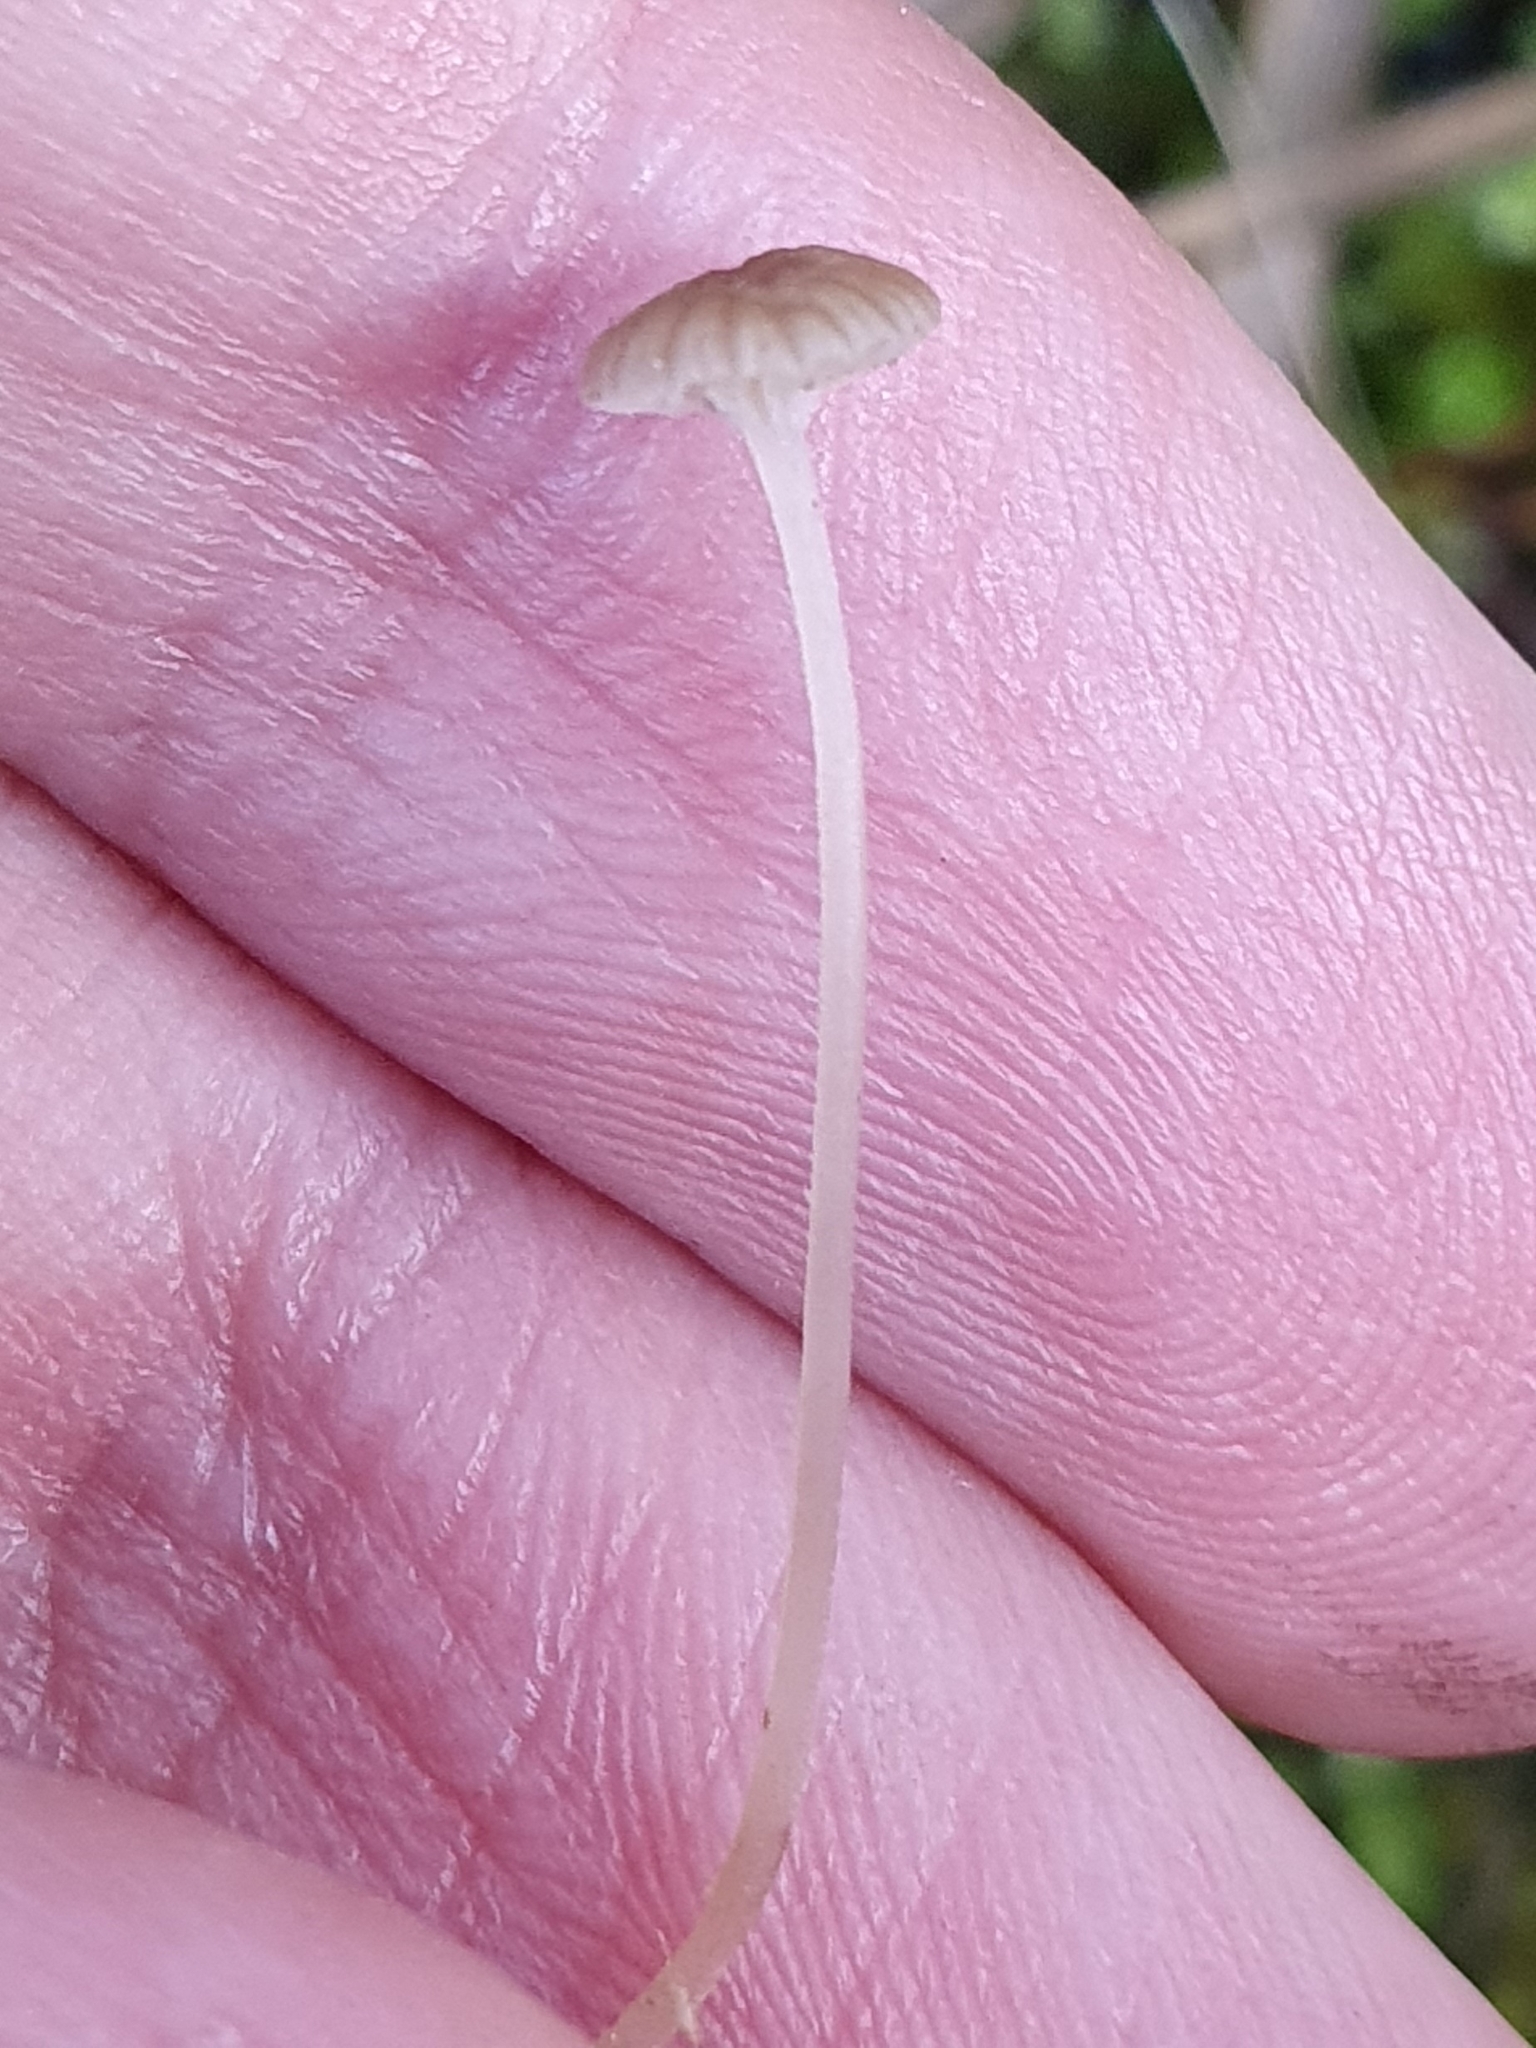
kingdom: Fungi
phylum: Basidiomycota
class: Agaricomycetes
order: Agaricales
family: Hygrophoraceae
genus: Lichenomphalia
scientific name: Lichenomphalia
